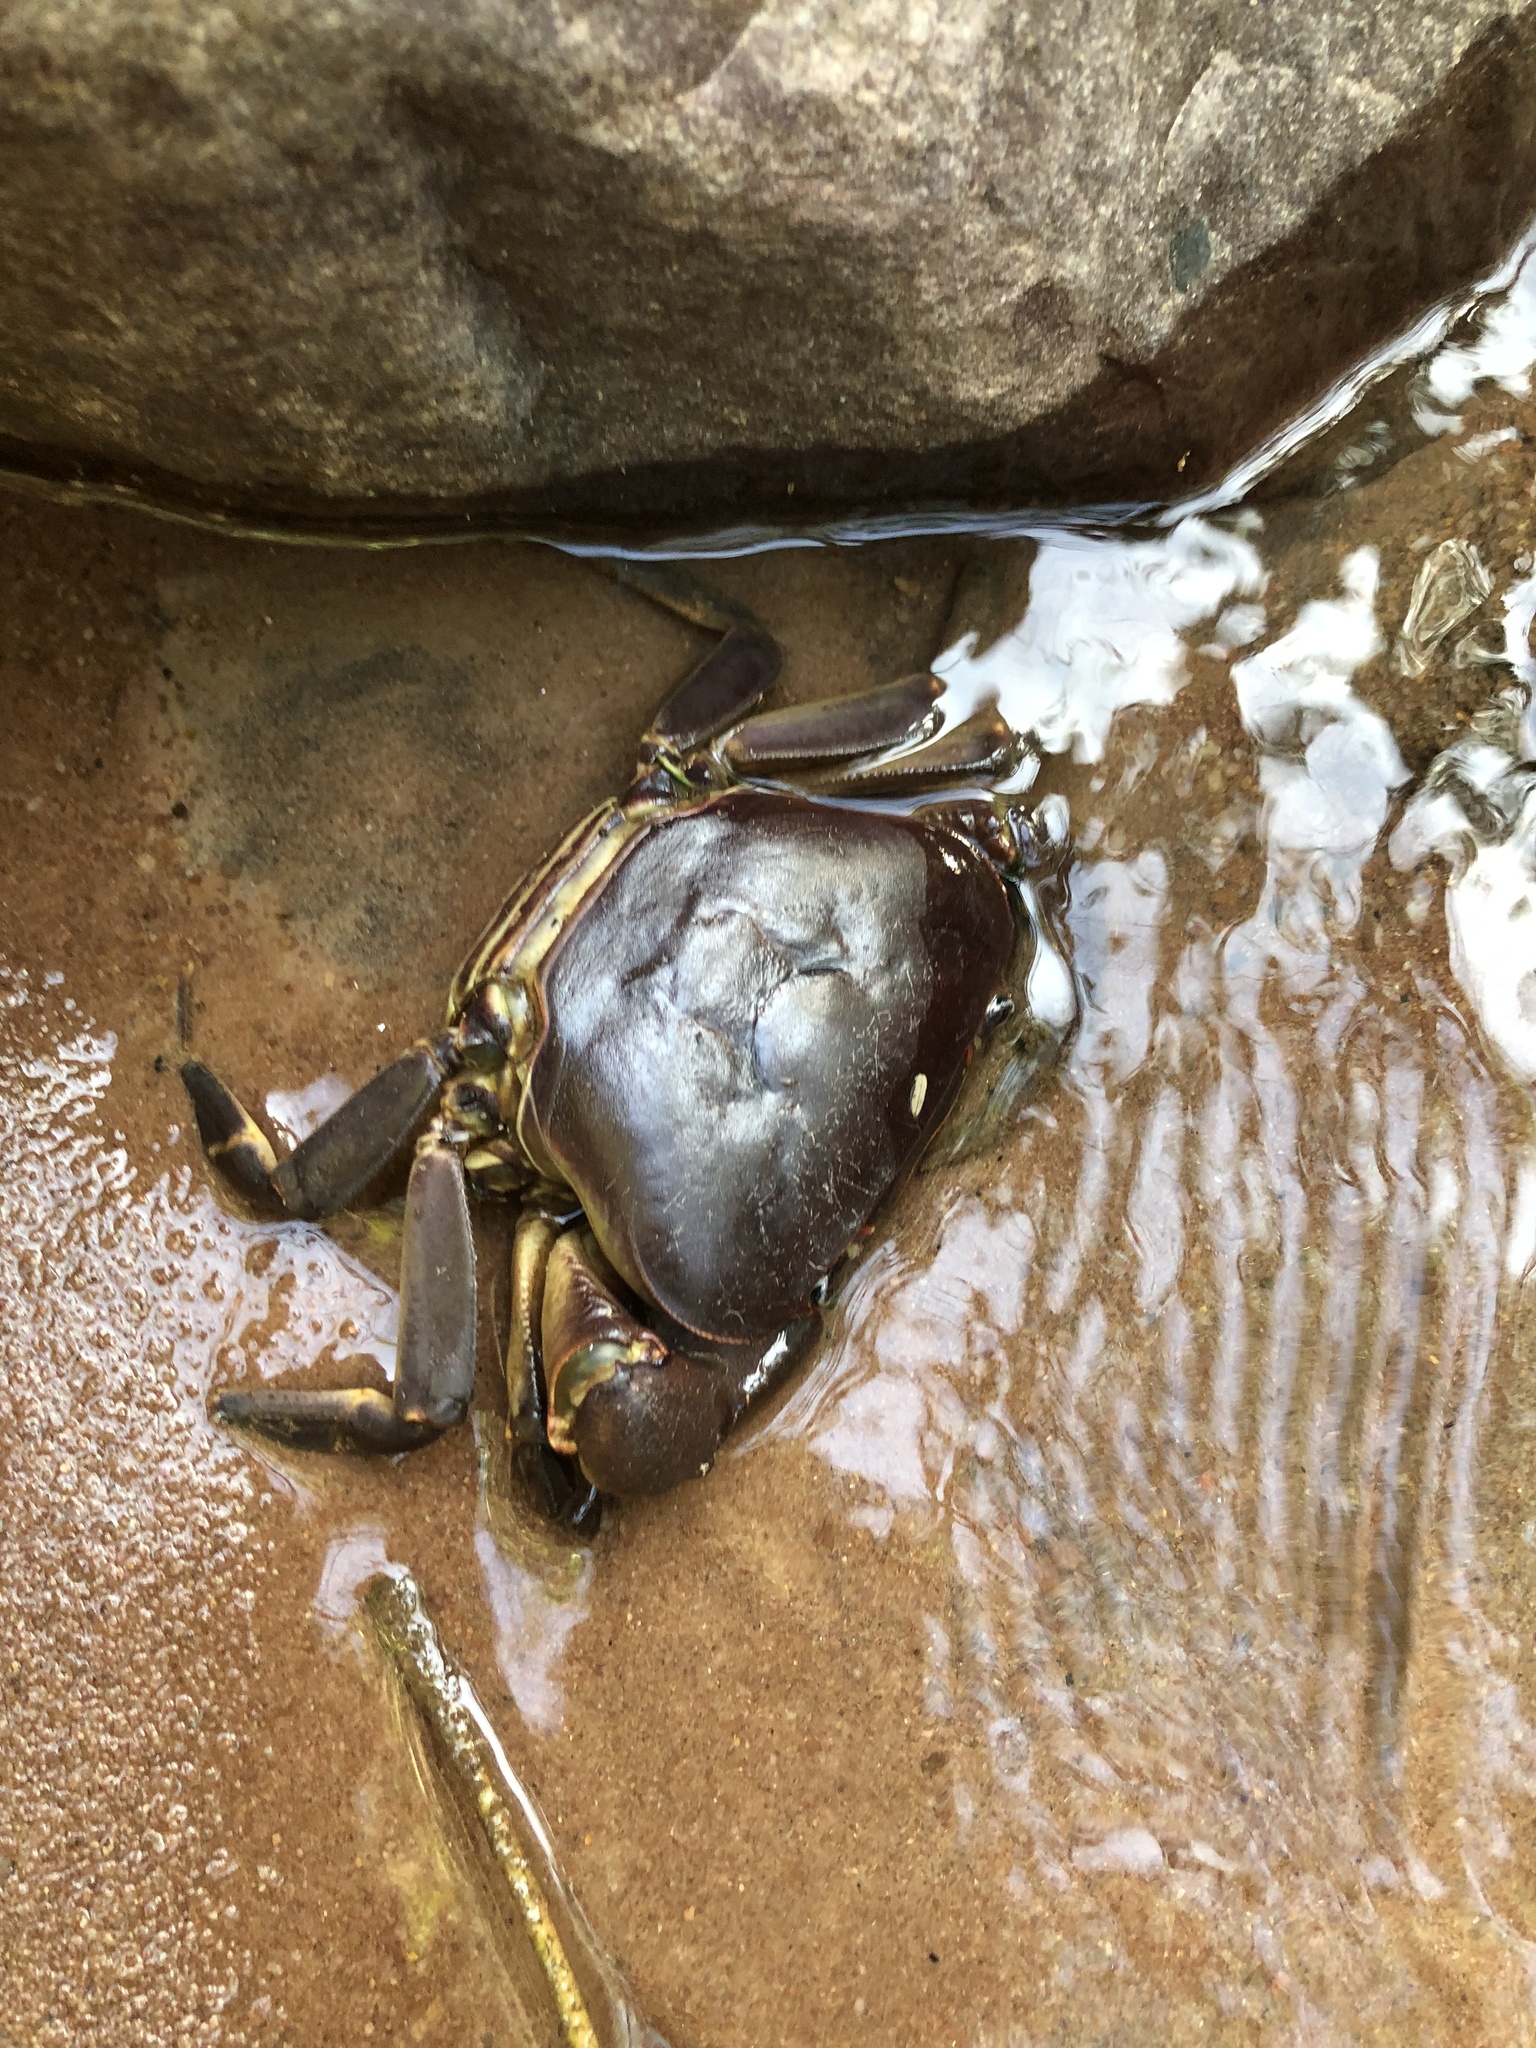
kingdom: Animalia
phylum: Arthropoda
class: Malacostraca
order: Decapoda
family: Potamonautidae
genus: Potamonautes
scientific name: Potamonautes sidneyi
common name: Natal river crab
